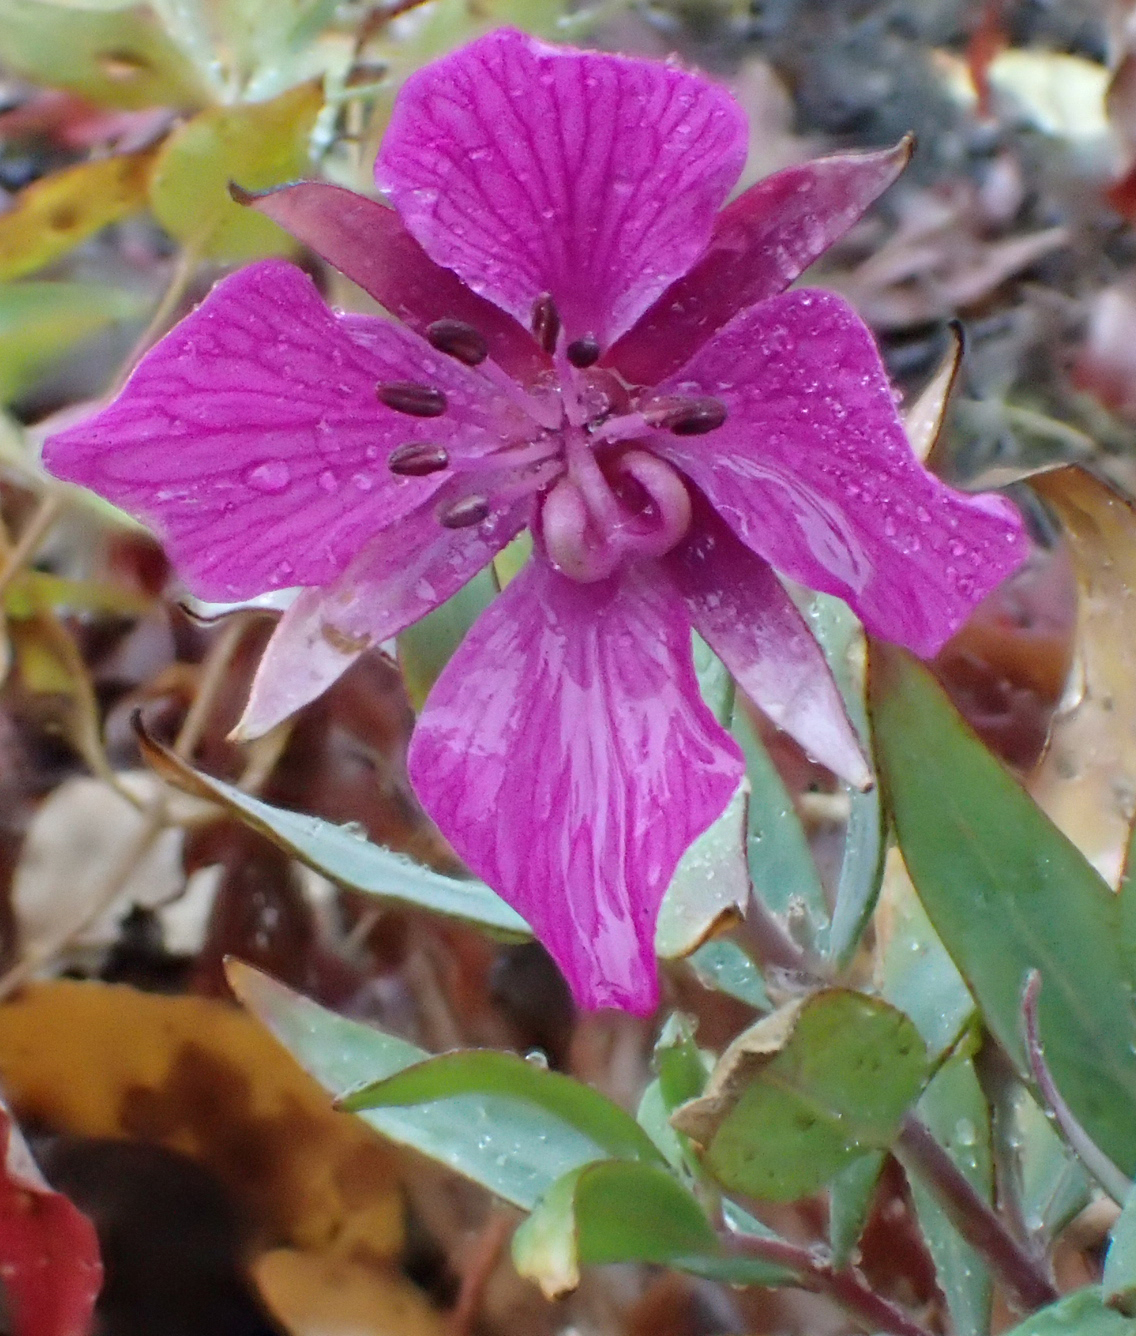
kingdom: Plantae
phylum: Tracheophyta
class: Magnoliopsida
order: Myrtales
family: Onagraceae
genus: Chamaenerion
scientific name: Chamaenerion latifolium
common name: Dwarf fireweed
